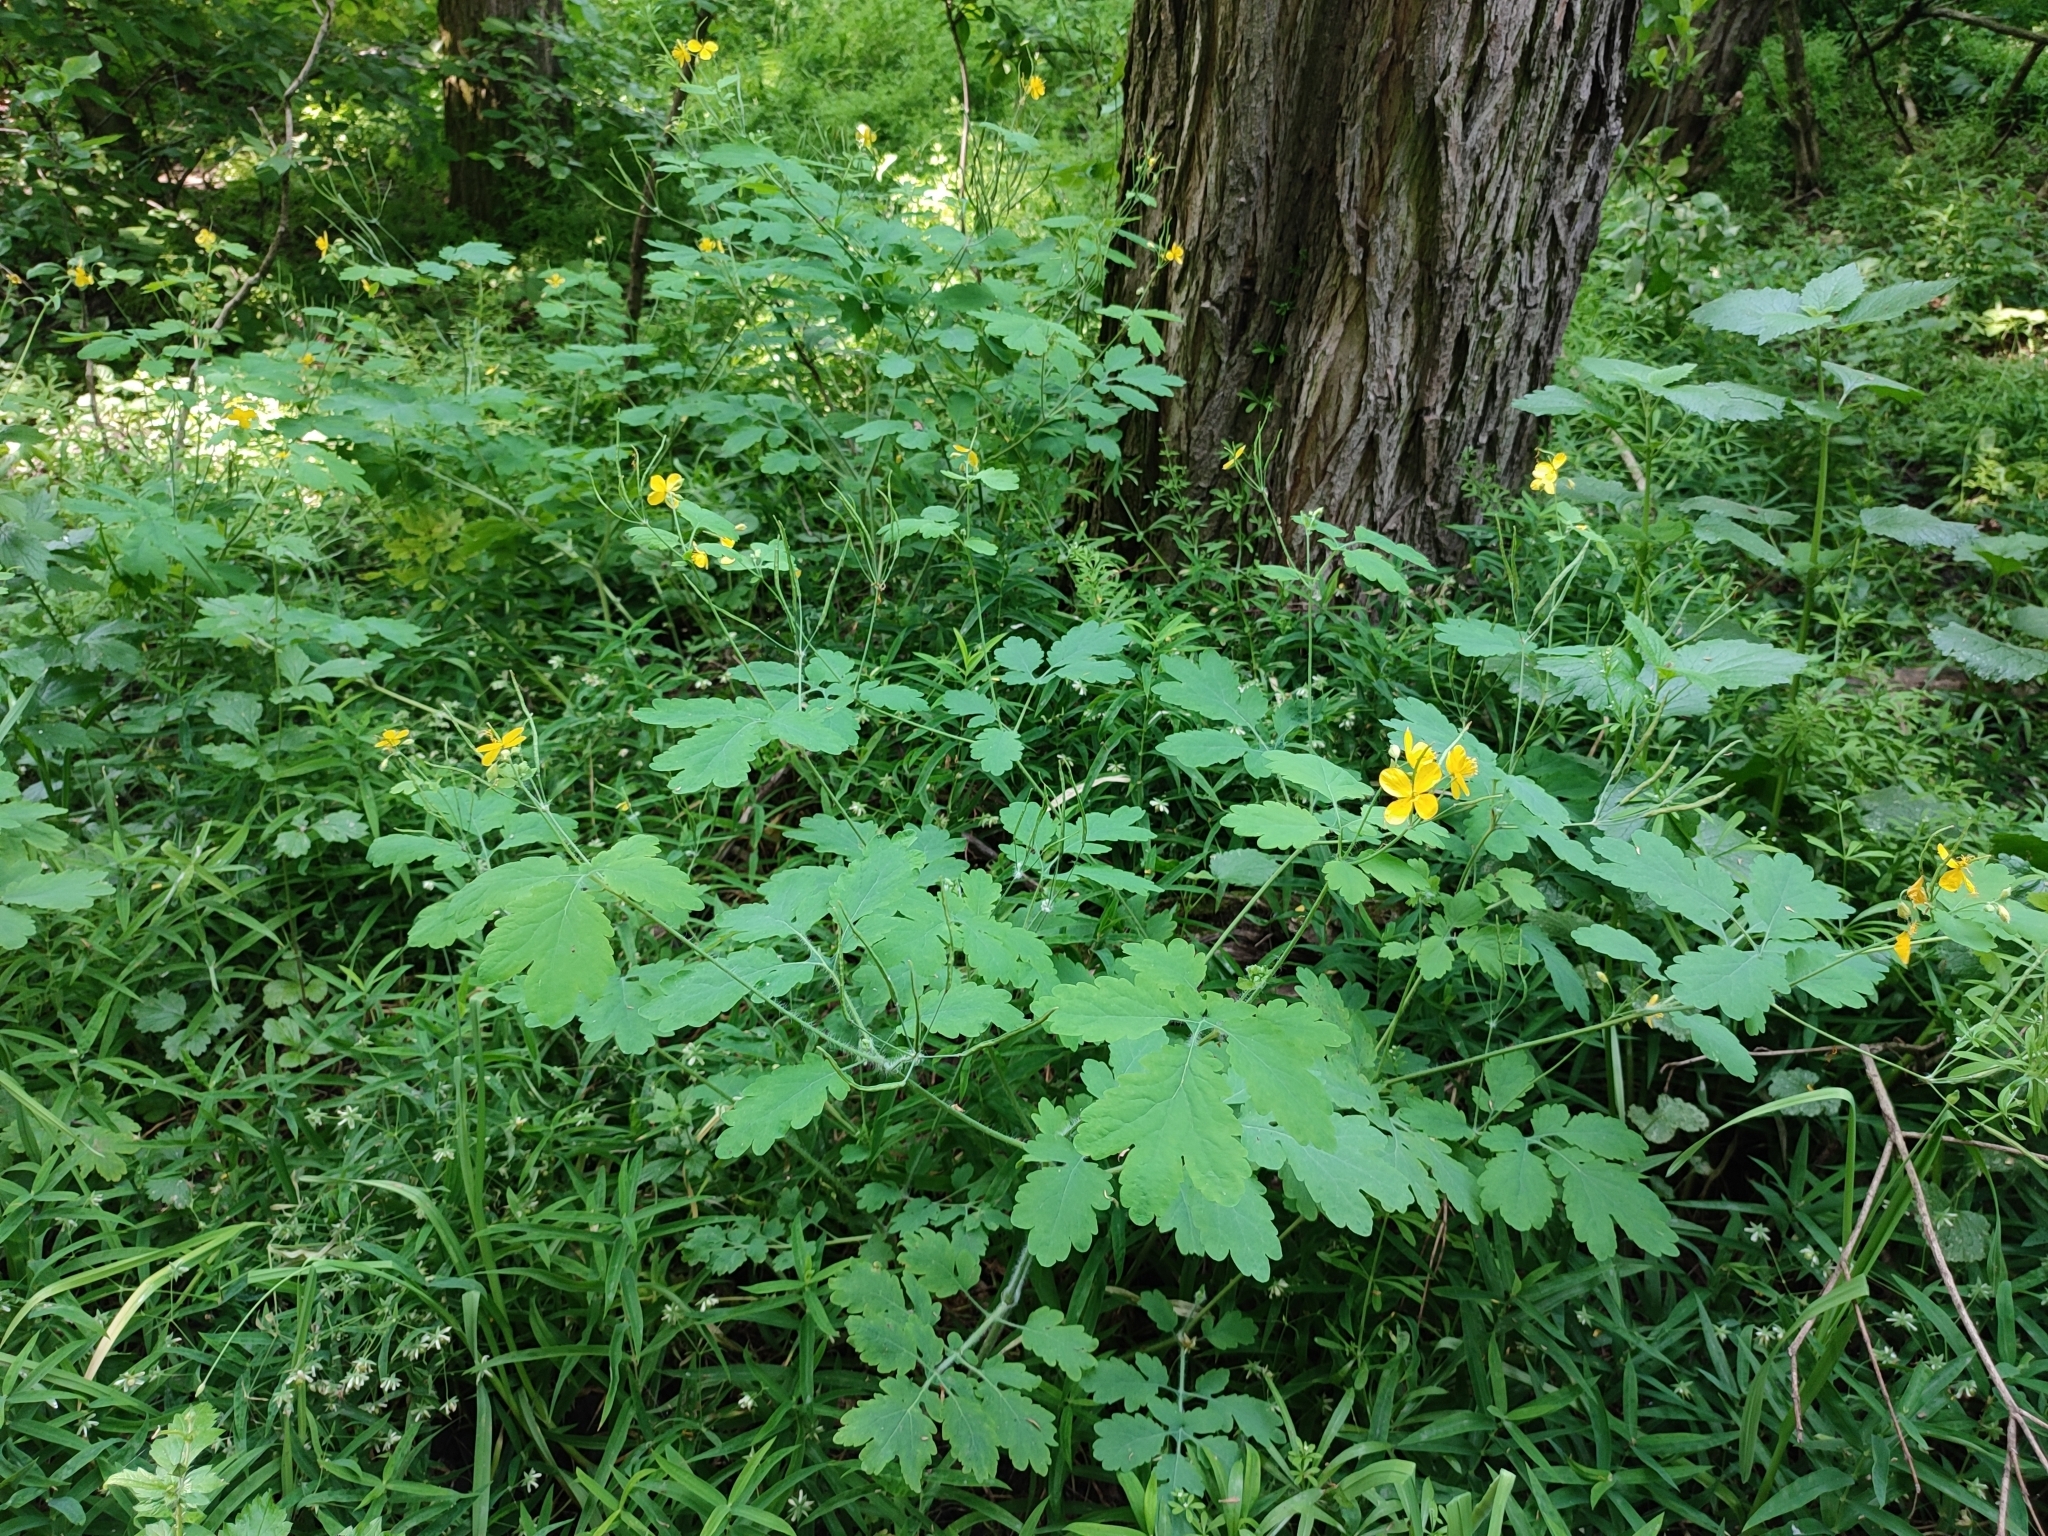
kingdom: Plantae
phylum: Tracheophyta
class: Magnoliopsida
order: Ranunculales
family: Papaveraceae
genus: Chelidonium
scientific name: Chelidonium majus
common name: Greater celandine
